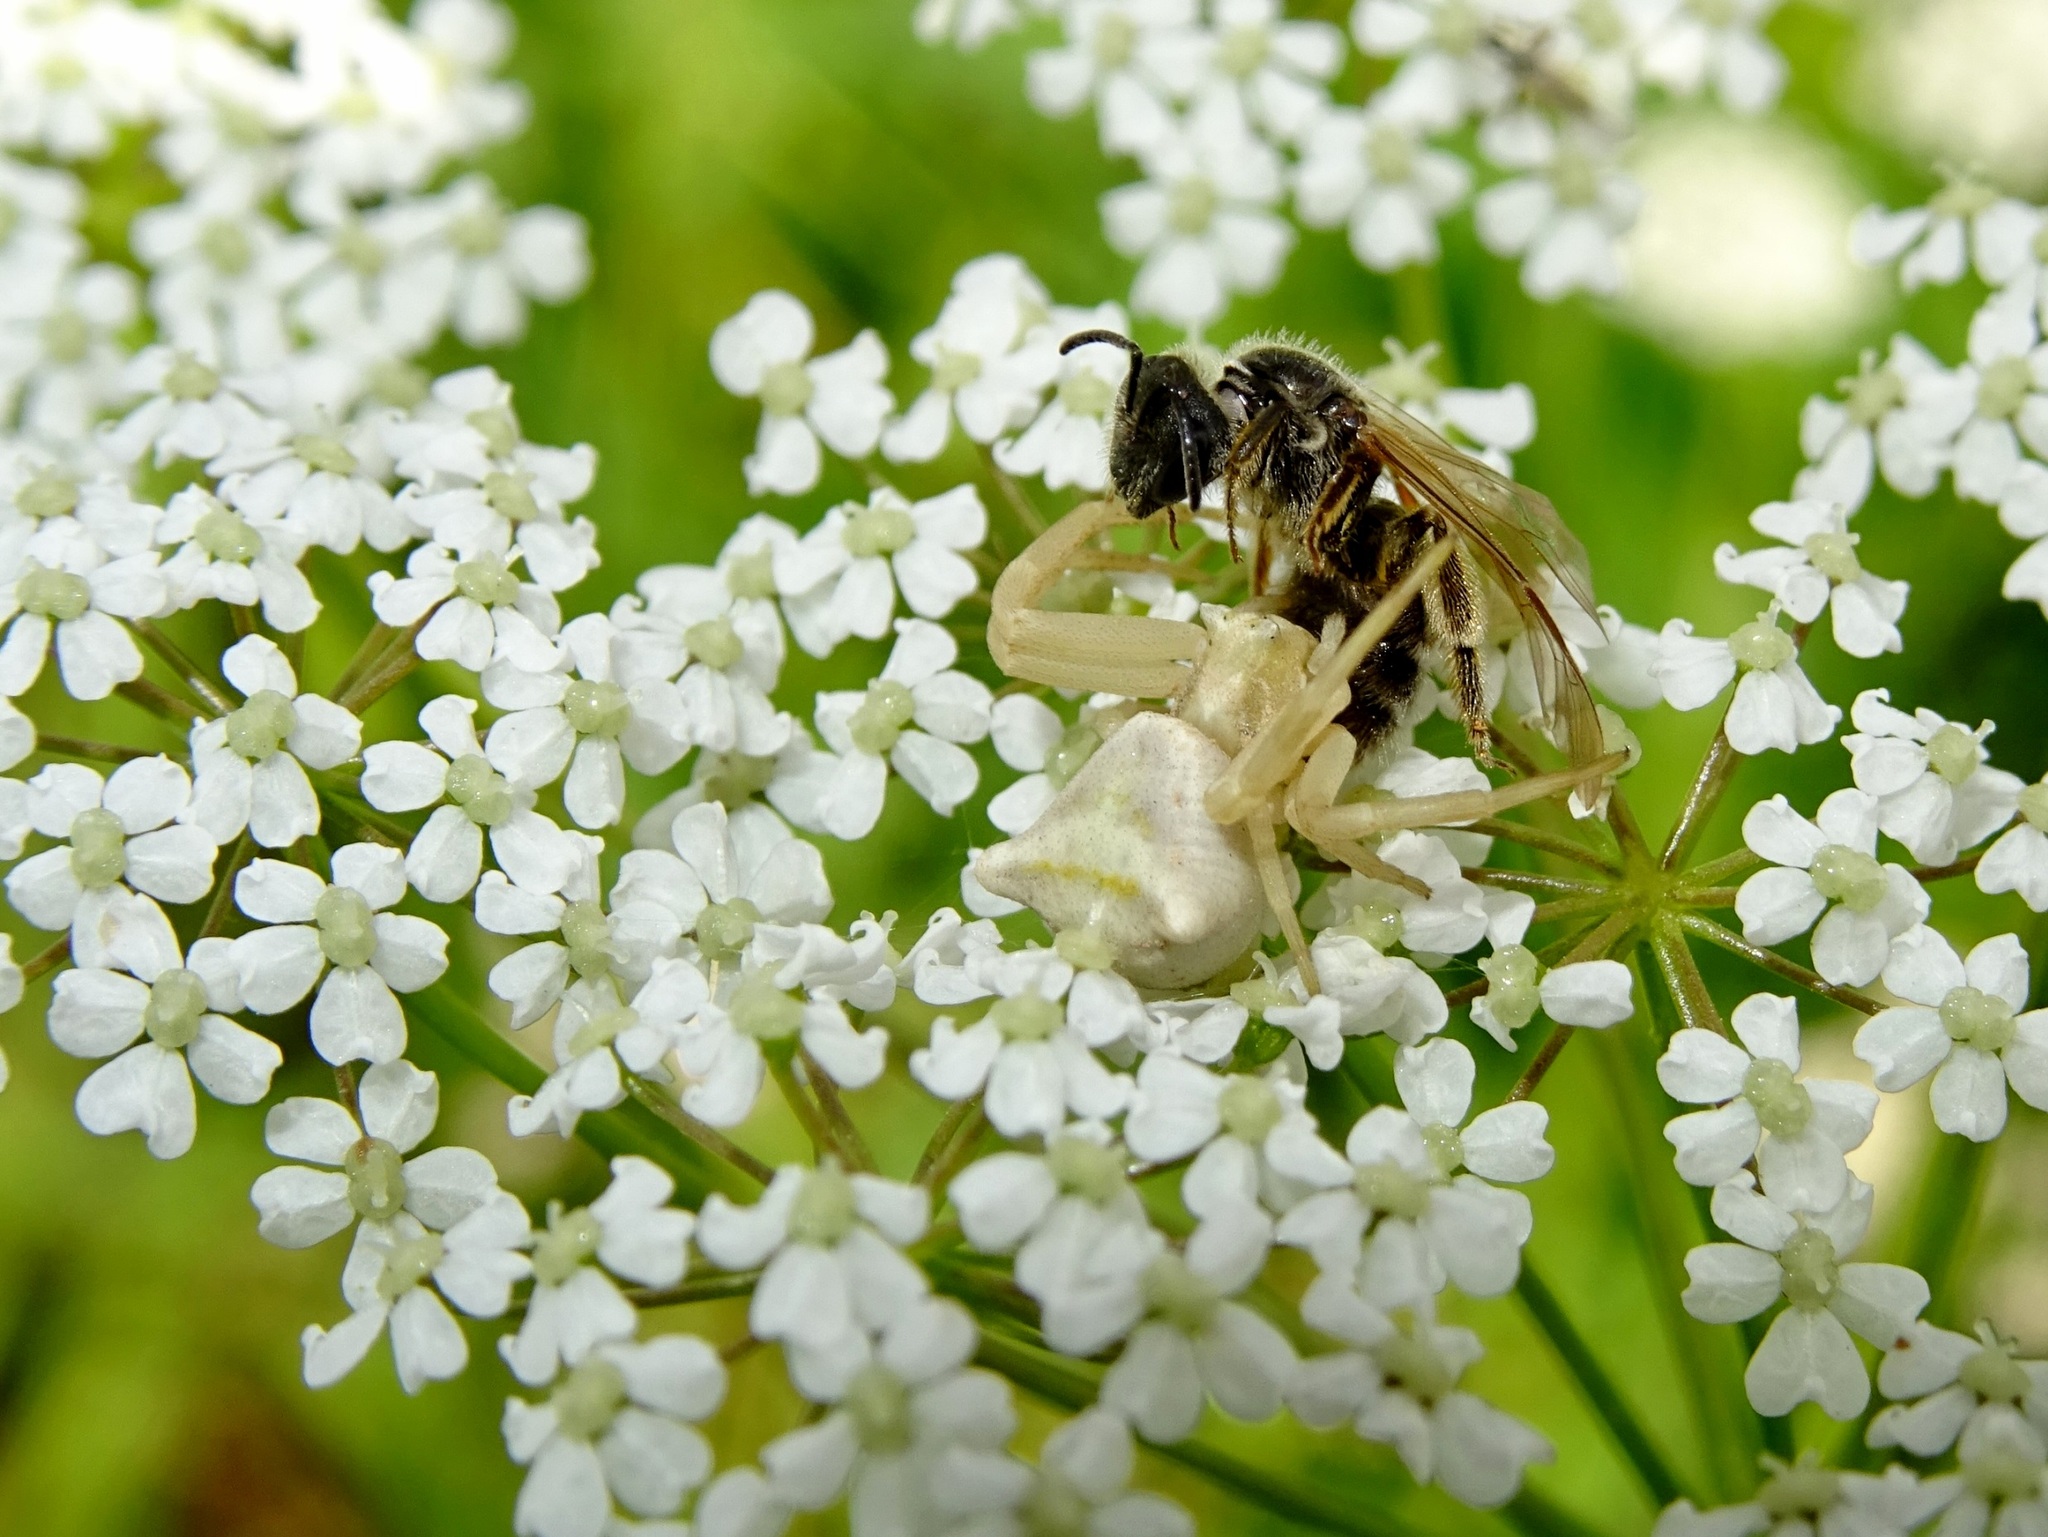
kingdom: Animalia
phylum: Arthropoda
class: Arachnida
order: Araneae
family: Thomisidae
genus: Thomisus
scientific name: Thomisus onustus
